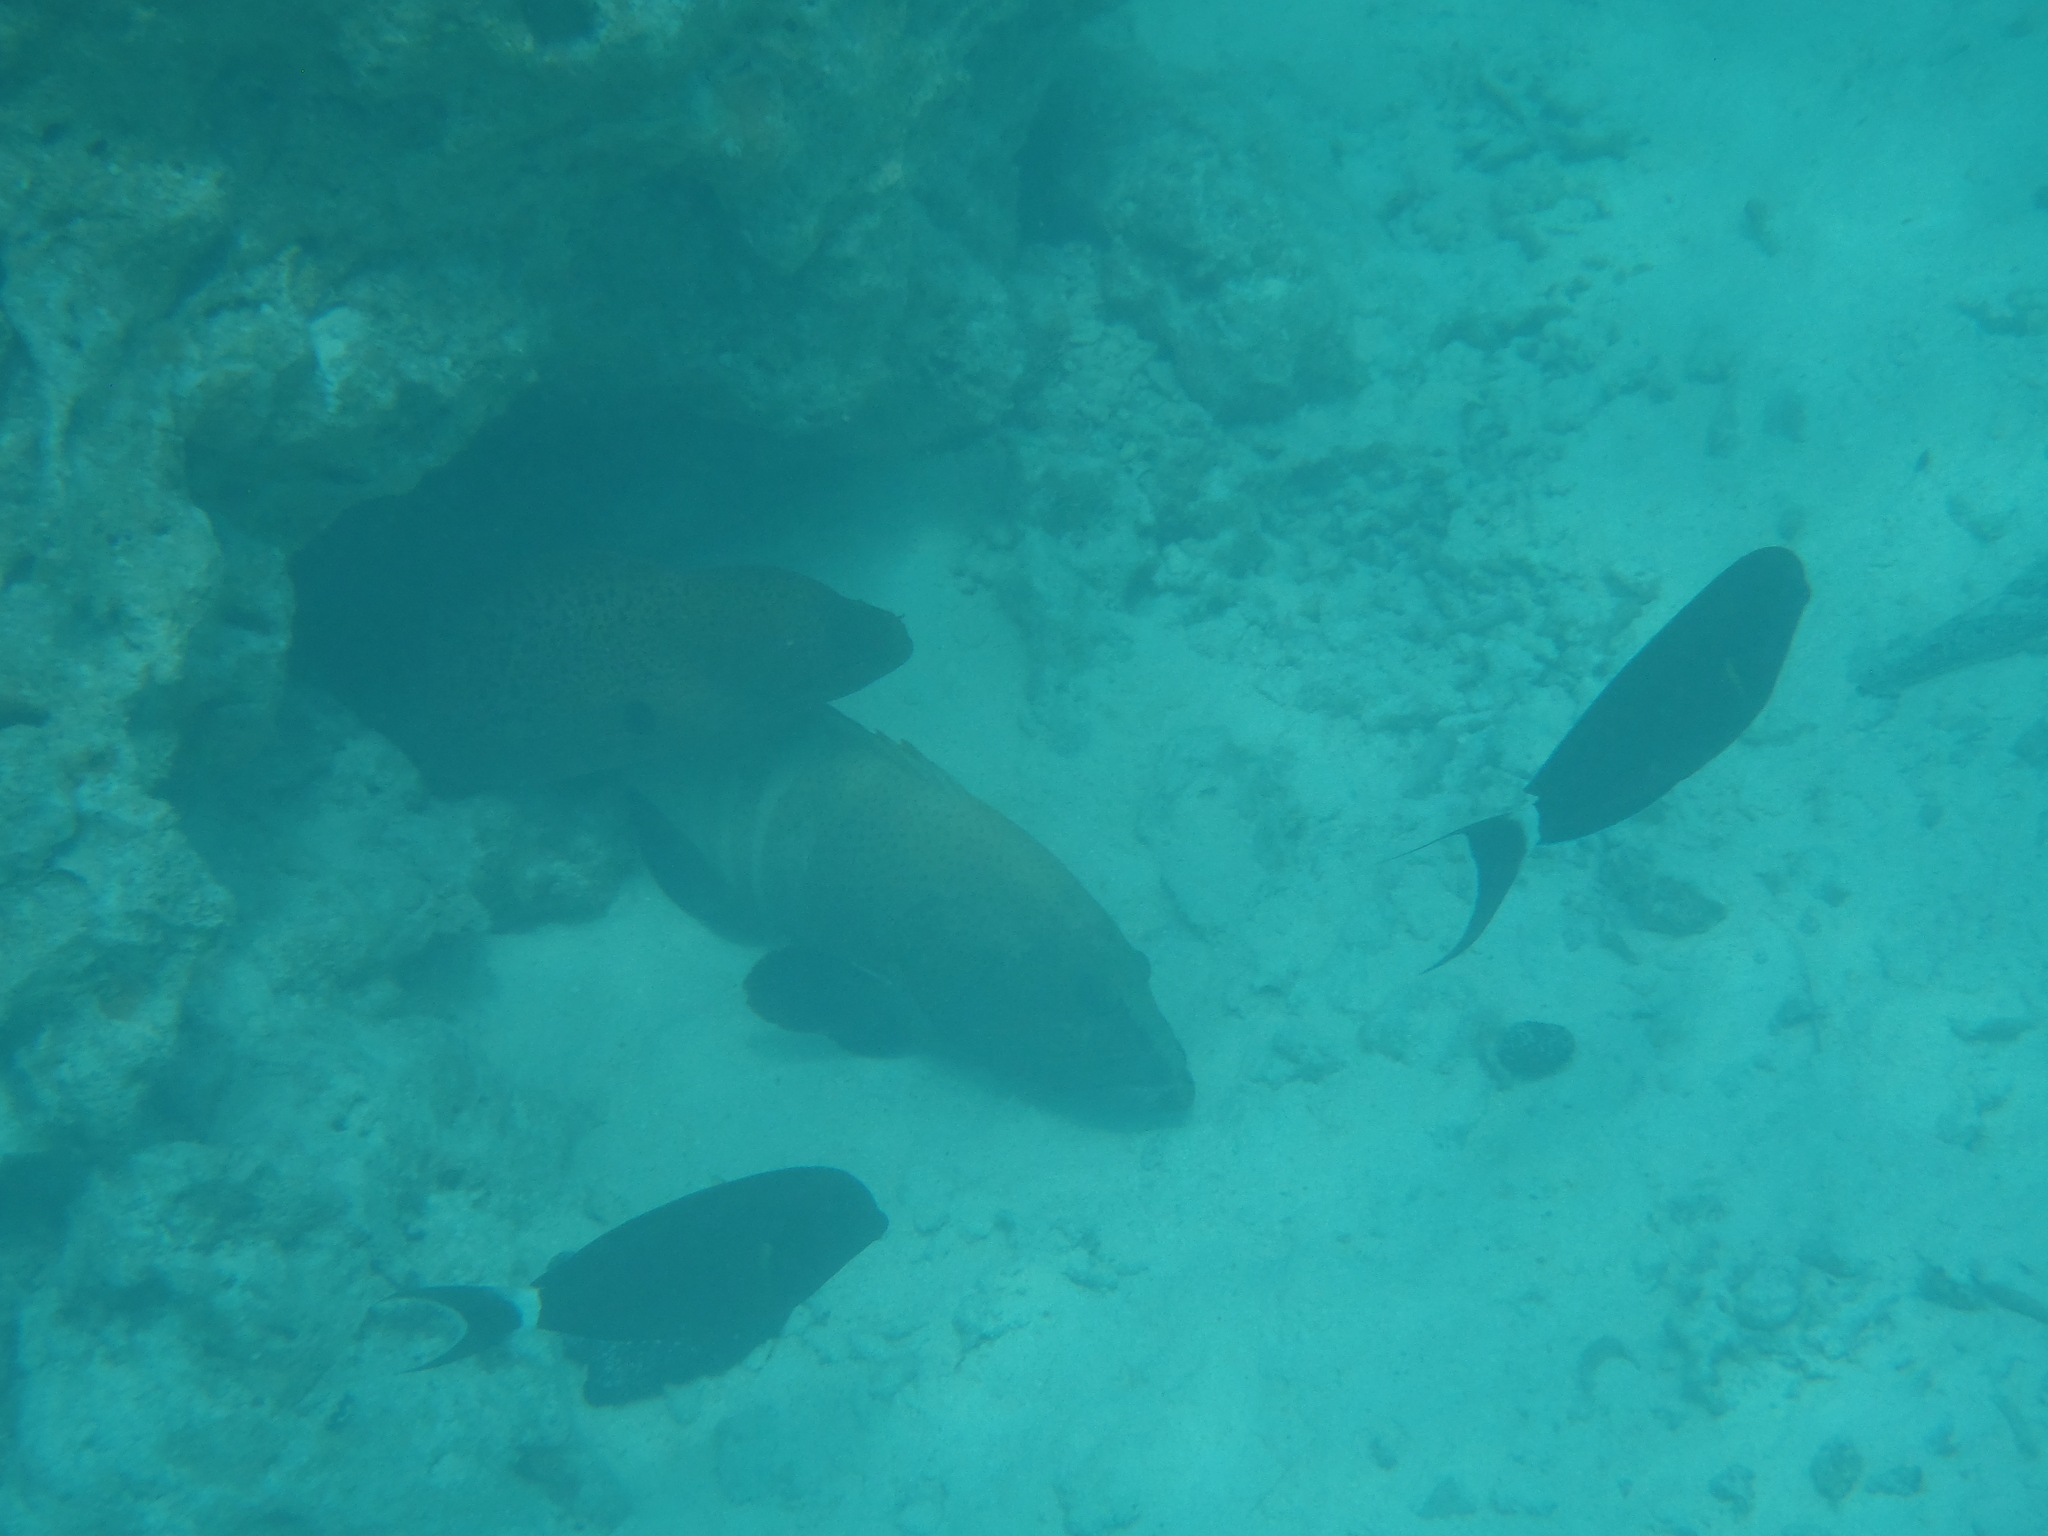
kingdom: Animalia
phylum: Chordata
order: Anguilliformes
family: Muraenidae
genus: Gymnothorax
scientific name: Gymnothorax javanicus
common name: Giant moray
